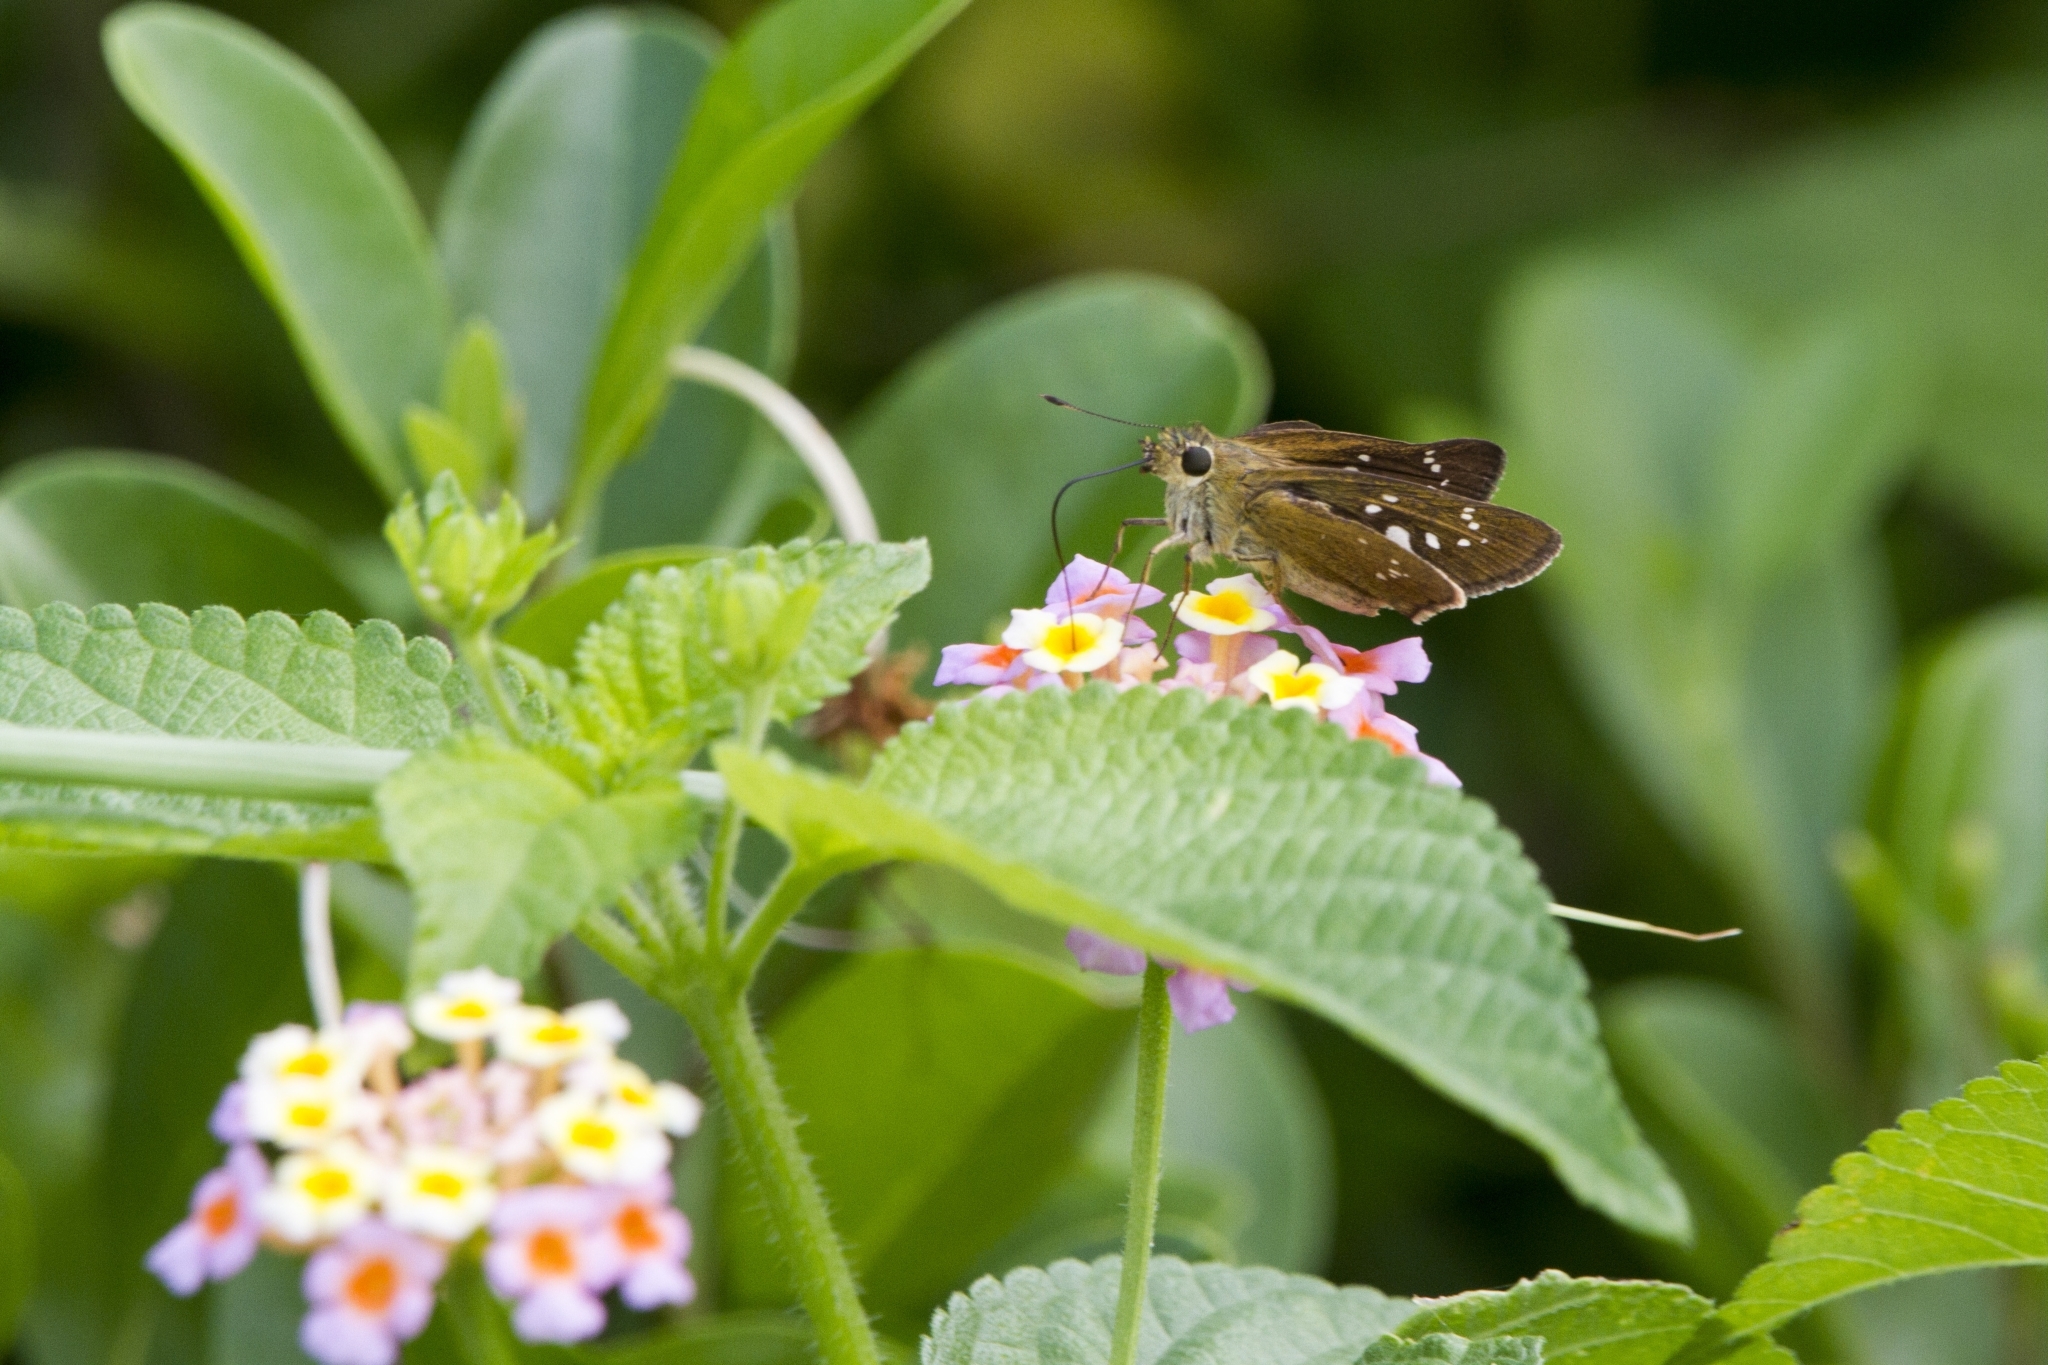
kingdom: Animalia
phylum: Arthropoda
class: Insecta
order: Lepidoptera
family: Hesperiidae
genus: Borbo
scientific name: Borbo cinnara
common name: Formosan swift
